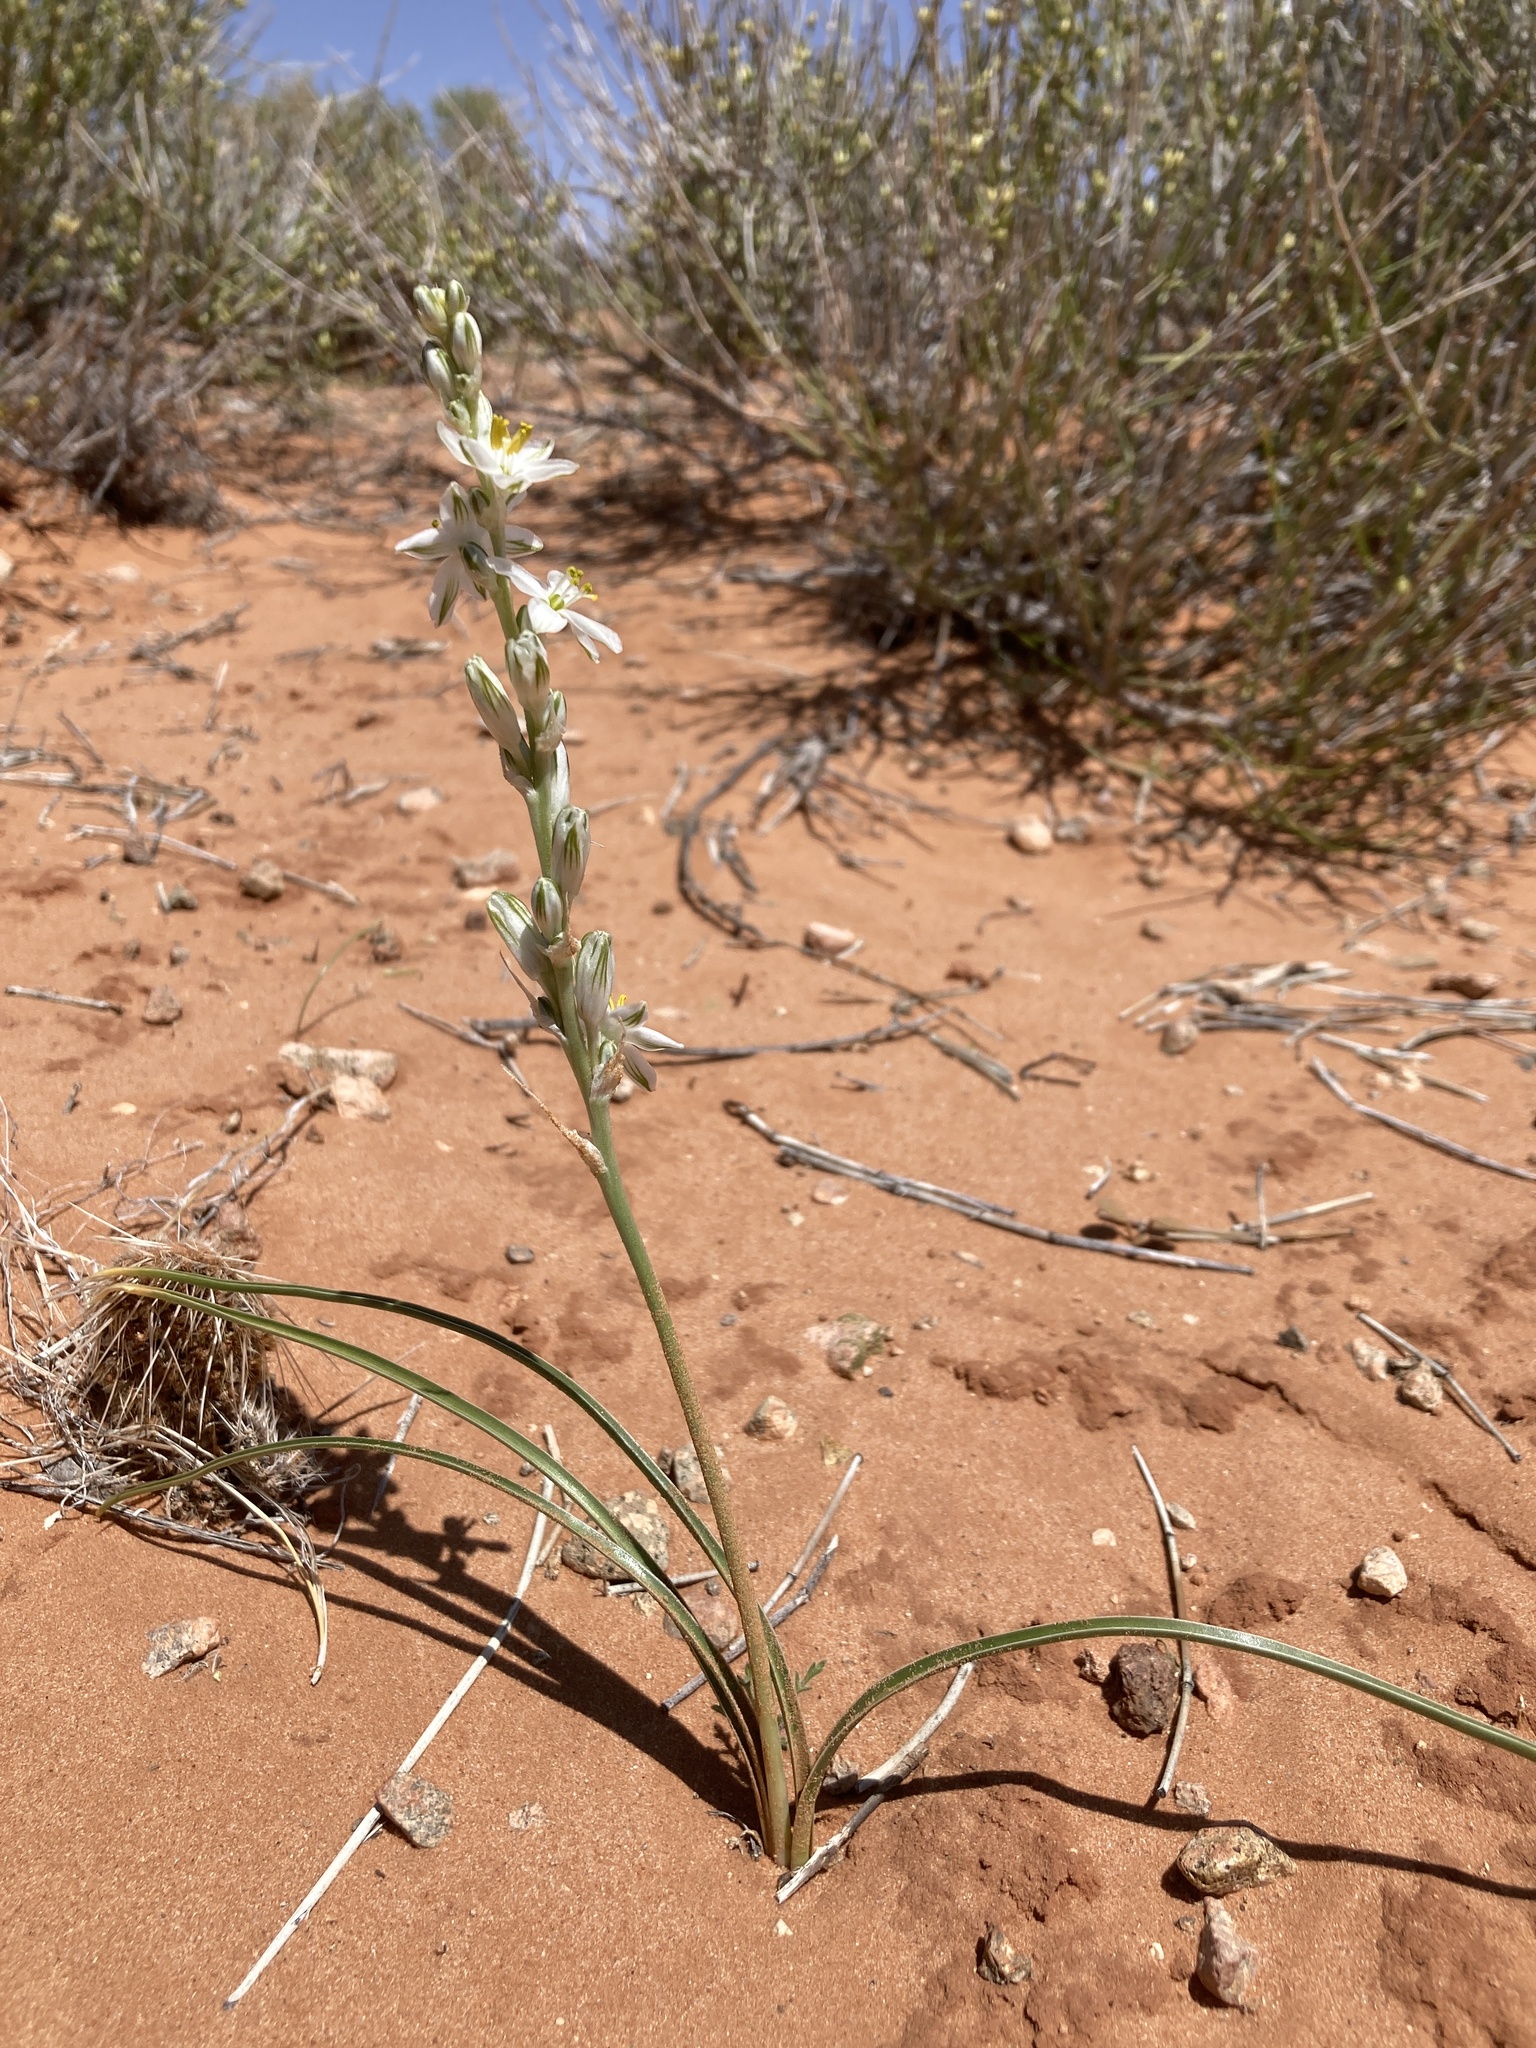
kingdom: Plantae
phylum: Tracheophyta
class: Liliopsida
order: Asparagales
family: Asparagaceae
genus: Eremocrinum
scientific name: Eremocrinum albomarginatum
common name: Sand-lily
